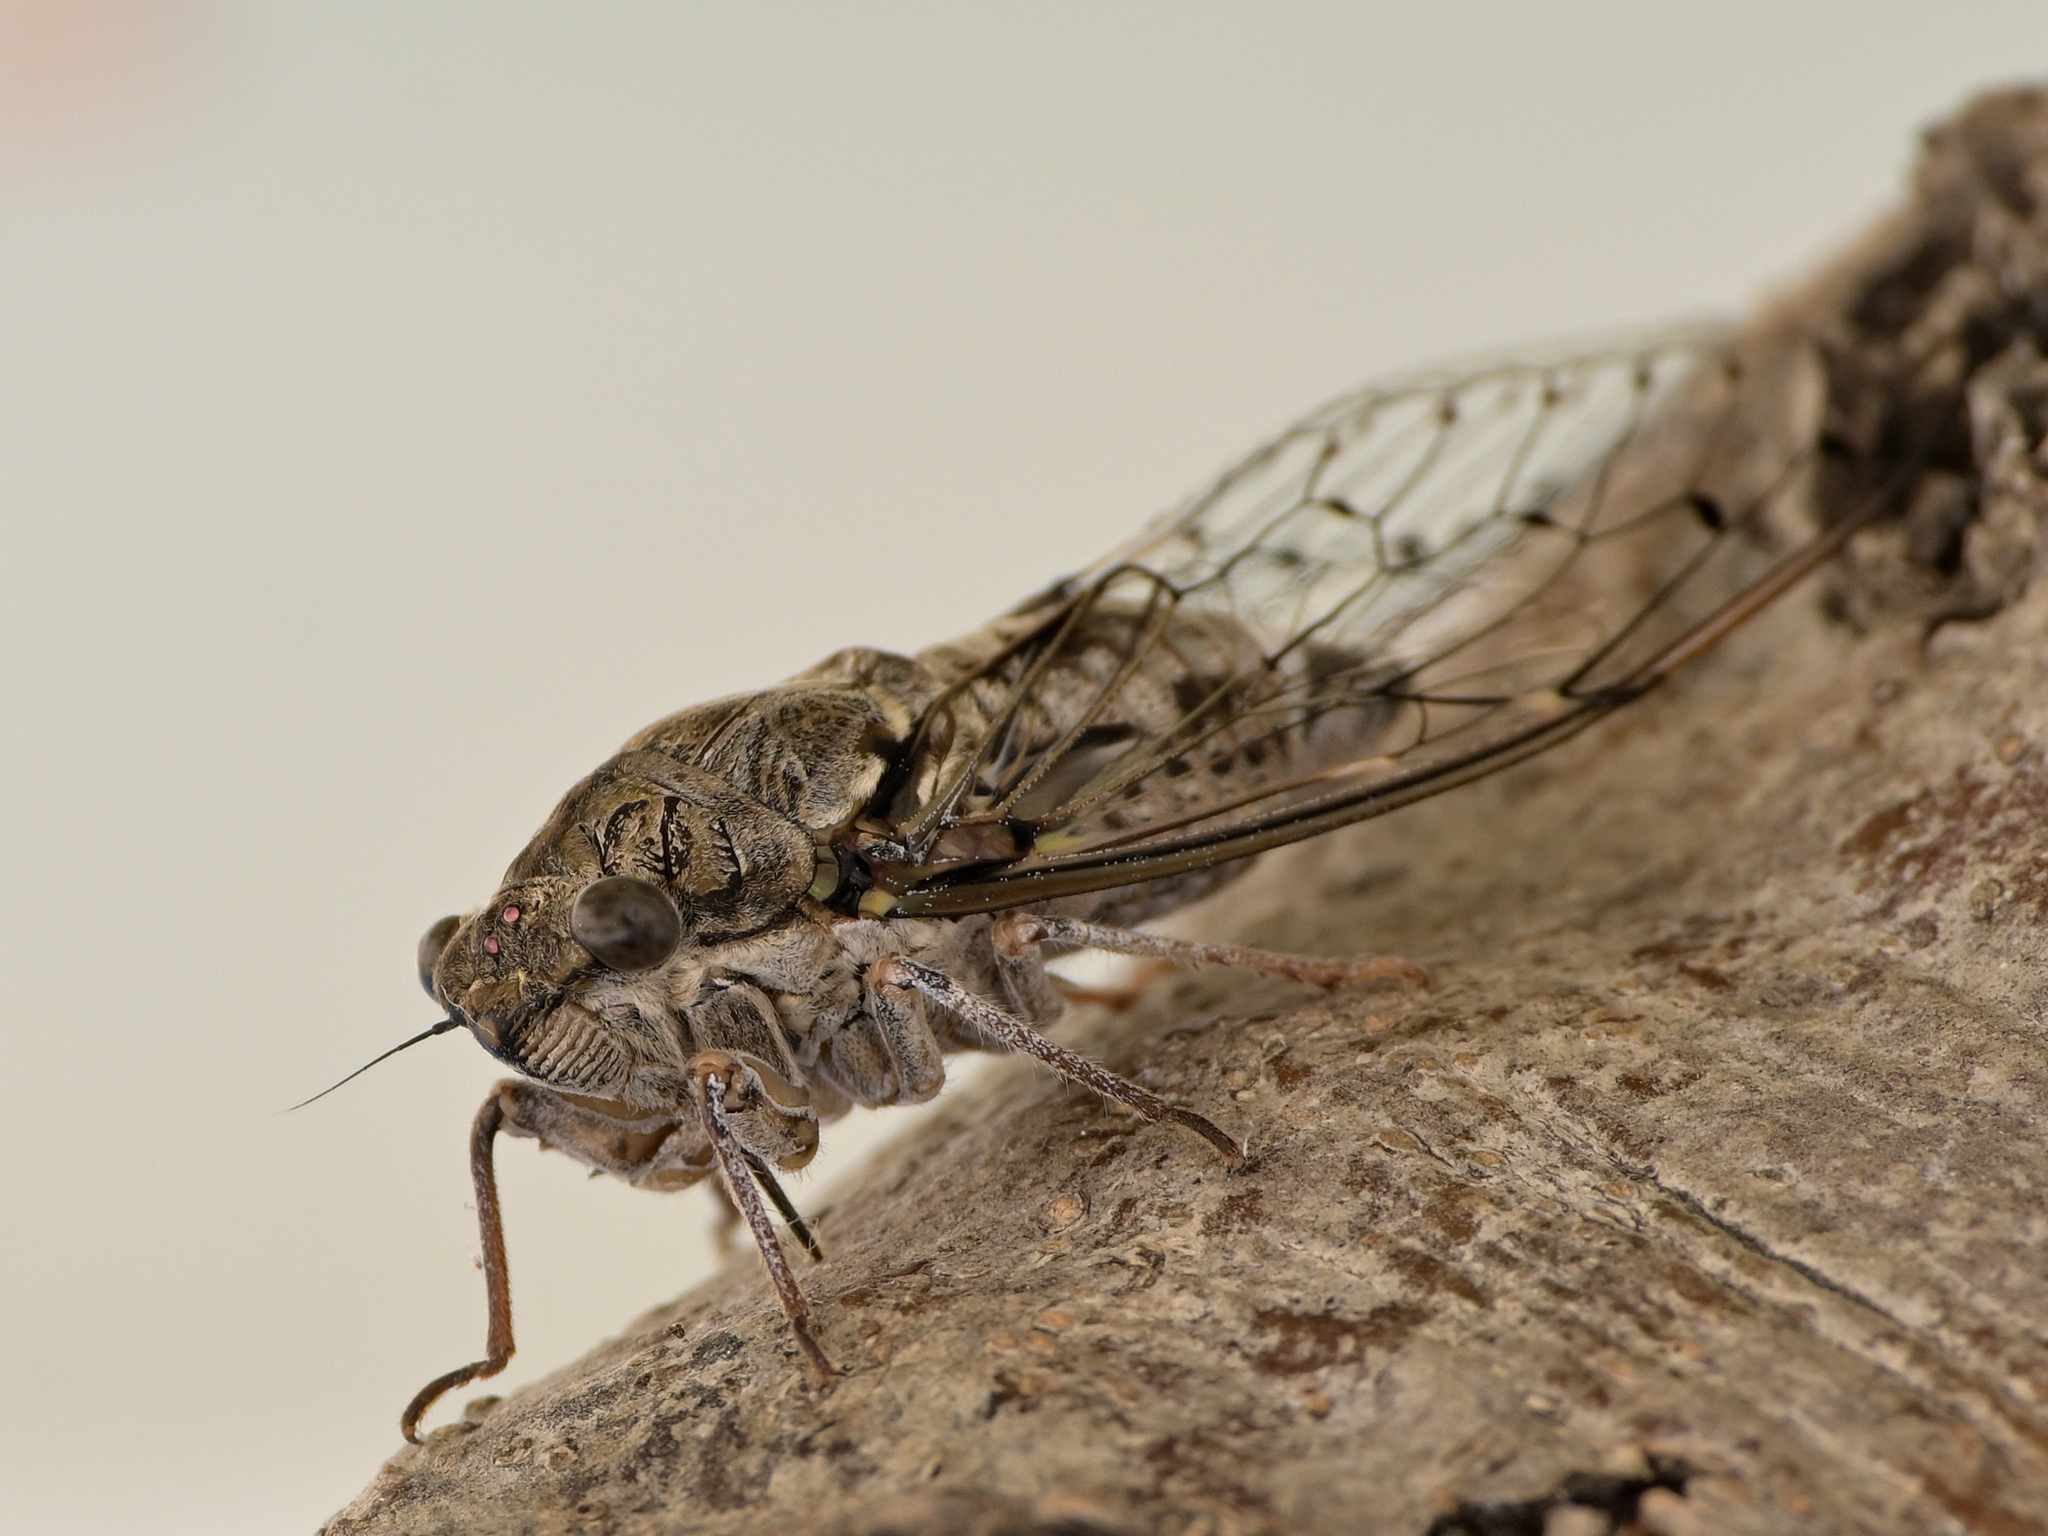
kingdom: Animalia
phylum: Arthropoda
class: Insecta
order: Hemiptera
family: Cicadidae
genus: Cicada
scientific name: Cicada cretensis
